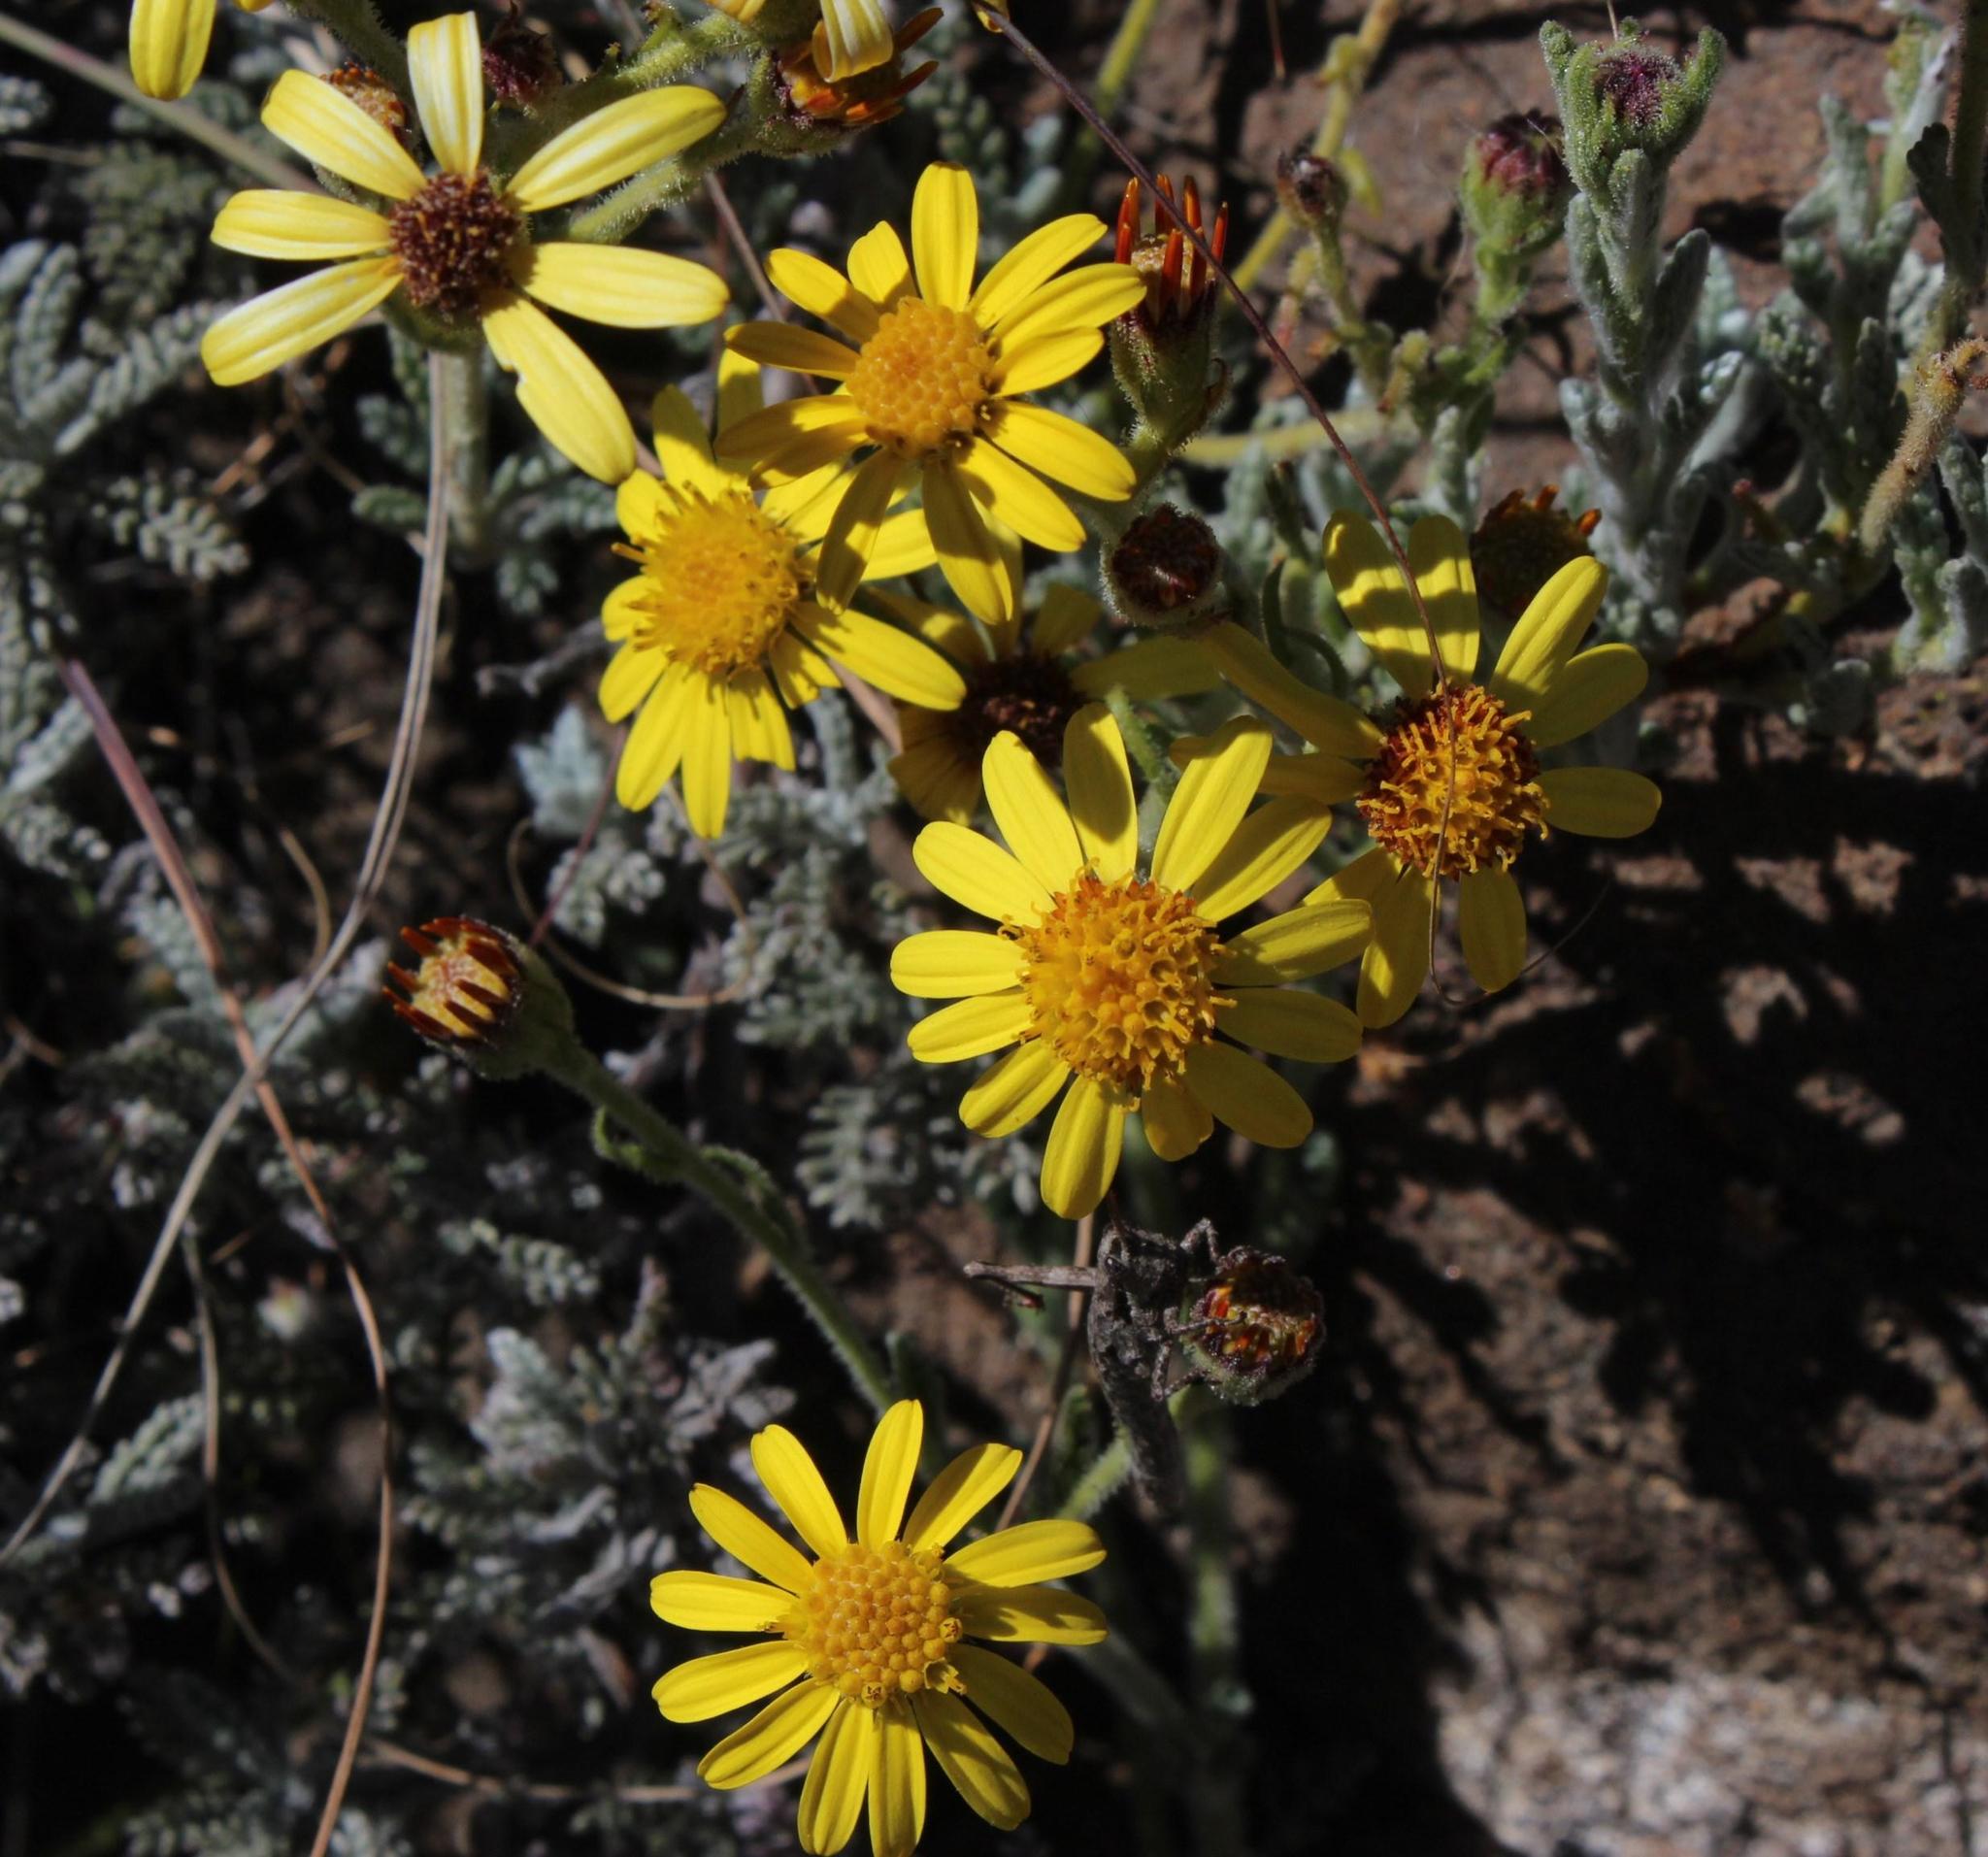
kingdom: Plantae
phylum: Tracheophyta
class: Magnoliopsida
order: Asterales
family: Asteraceae
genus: Senecio
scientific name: Senecio tanacetopsis
